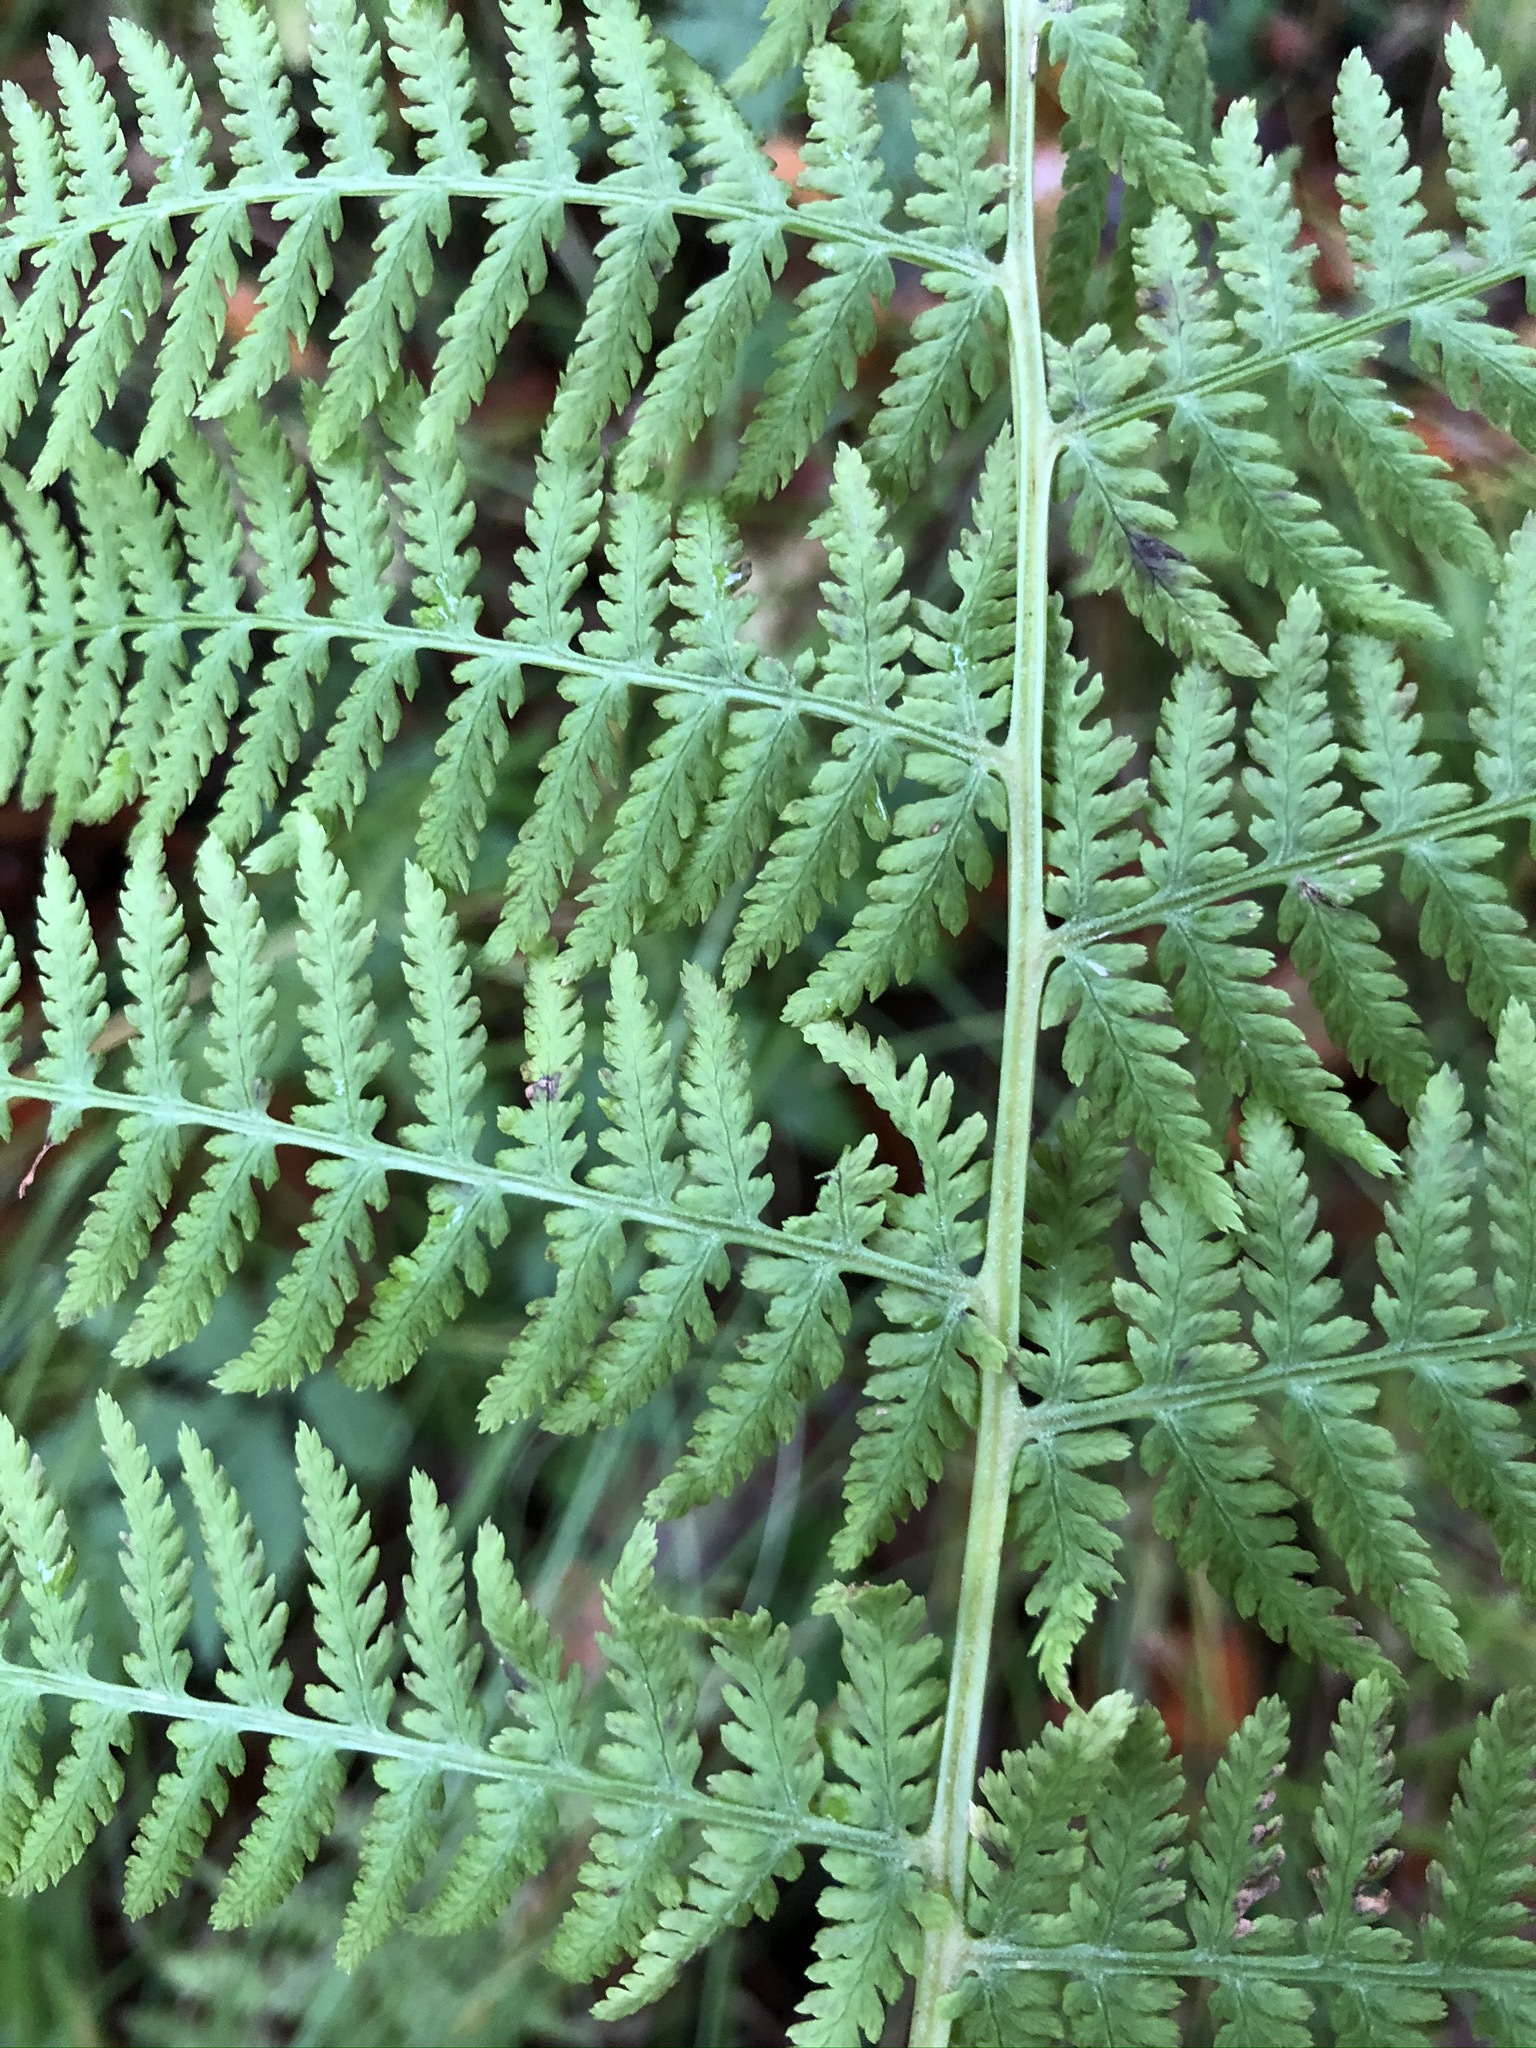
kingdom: Plantae
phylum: Tracheophyta
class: Polypodiopsida
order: Polypodiales
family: Athyriaceae
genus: Athyrium
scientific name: Athyrium filix-femina
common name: Lady fern
